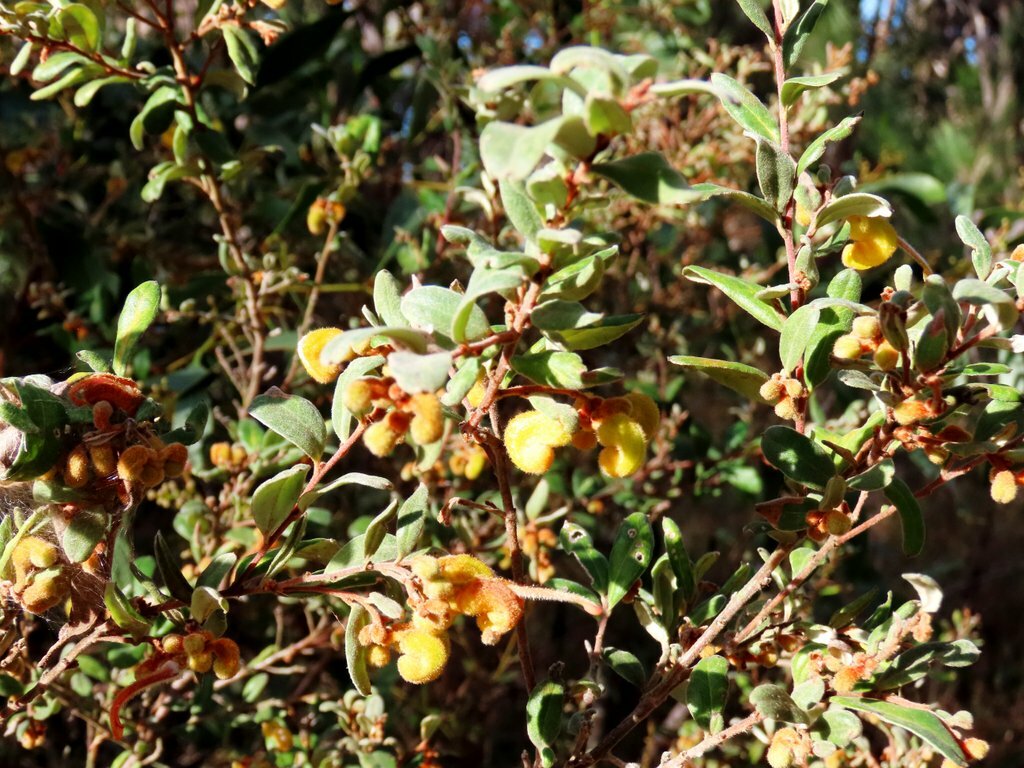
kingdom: Plantae
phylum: Tracheophyta
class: Magnoliopsida
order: Proteales
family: Proteaceae
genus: Grevillea
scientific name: Grevillea chrysophaea
